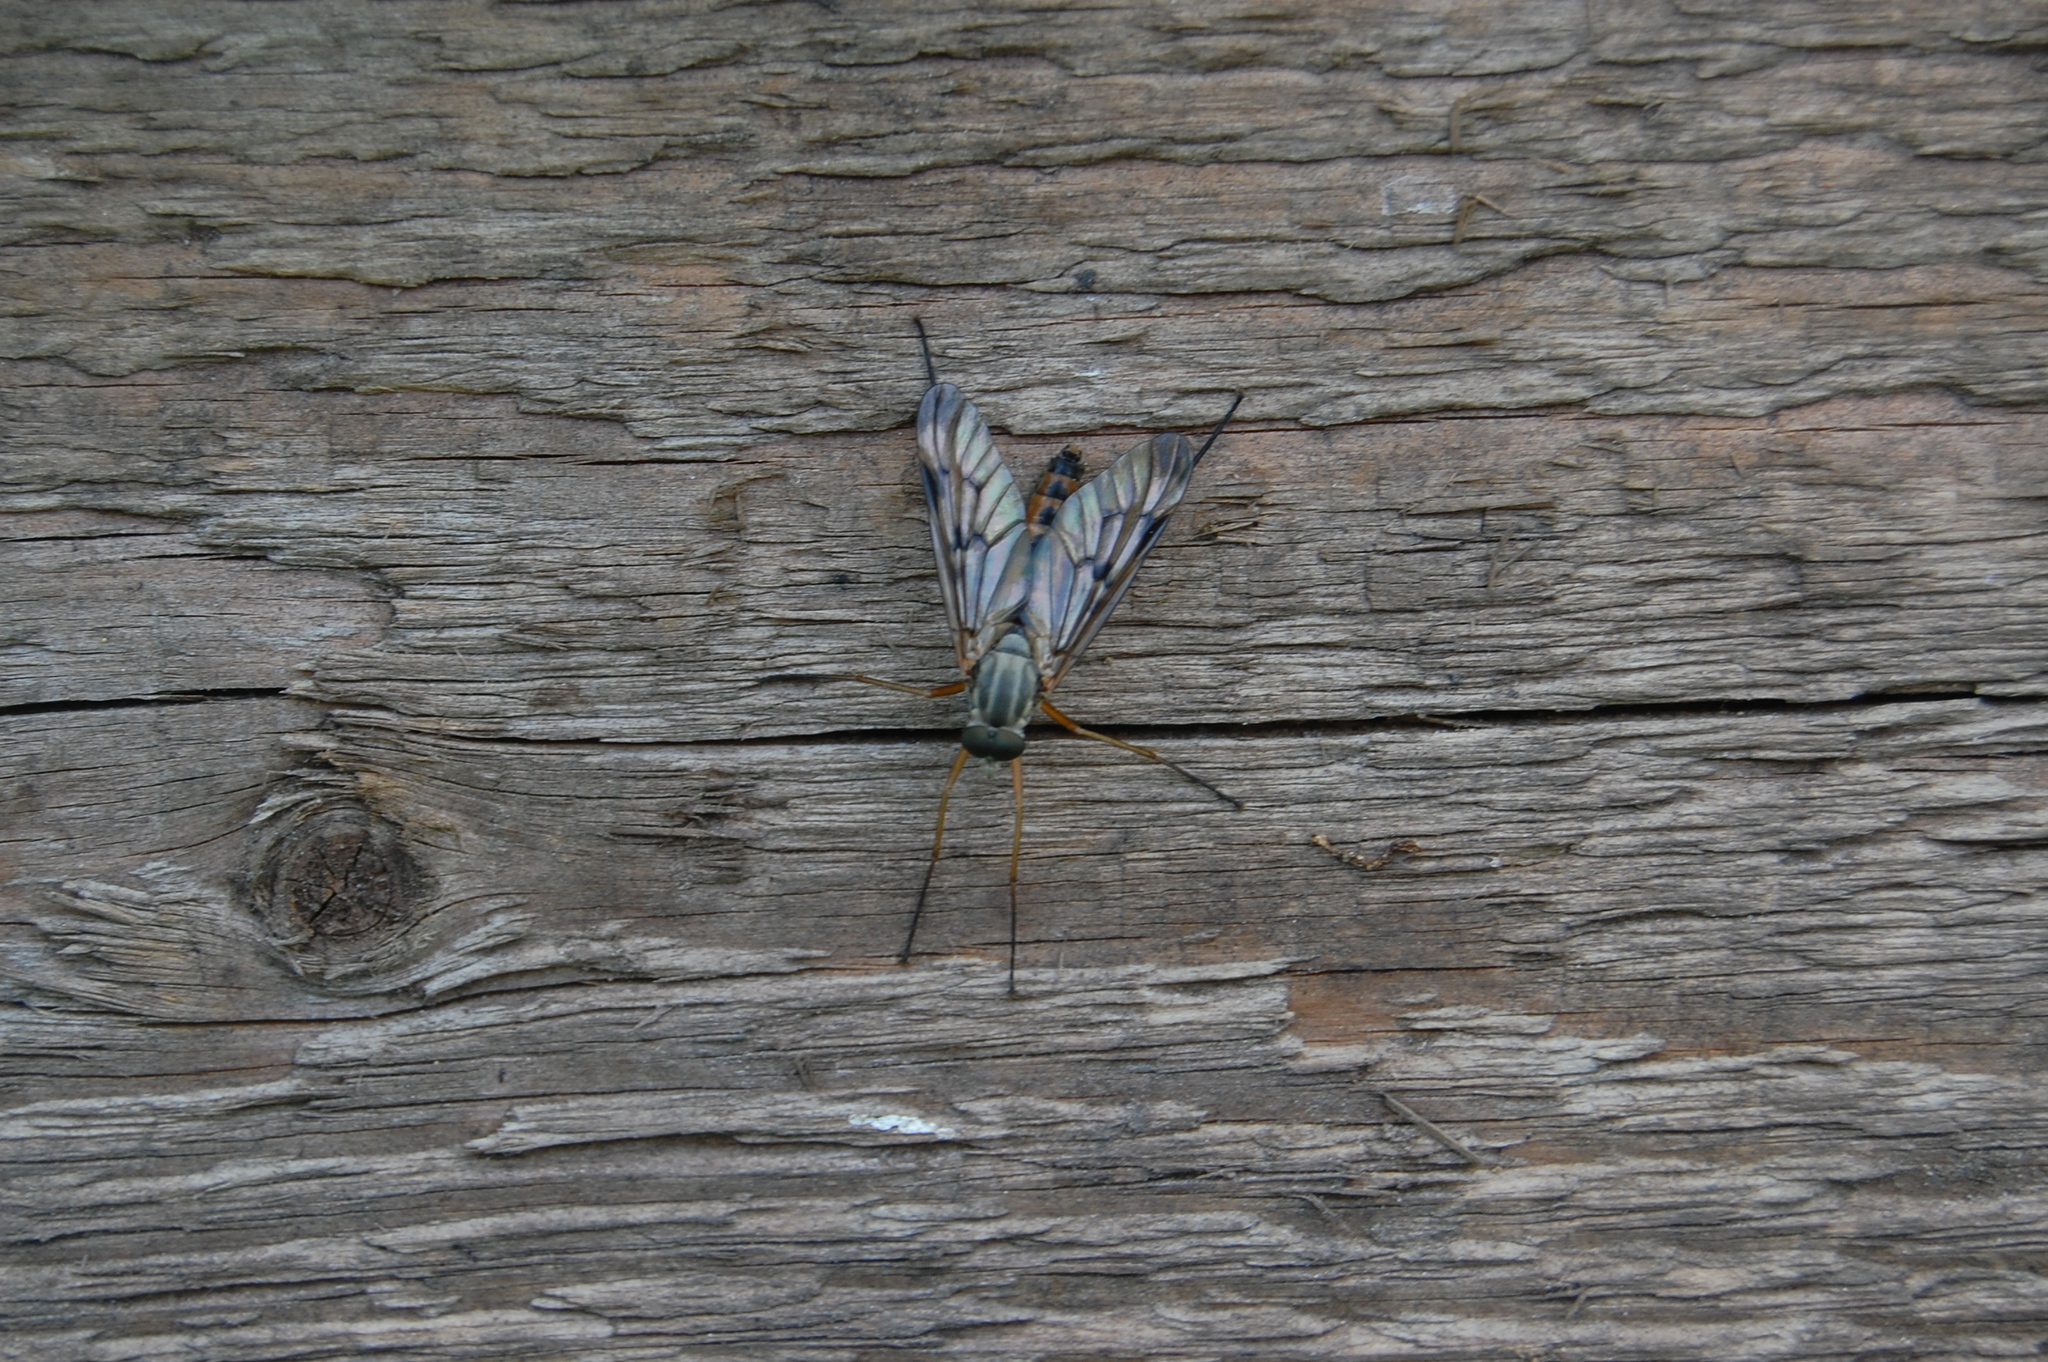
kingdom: Animalia
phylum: Arthropoda
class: Insecta
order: Diptera
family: Rhagionidae
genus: Rhagio
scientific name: Rhagio scolopacea
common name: Downlooker snipefly
